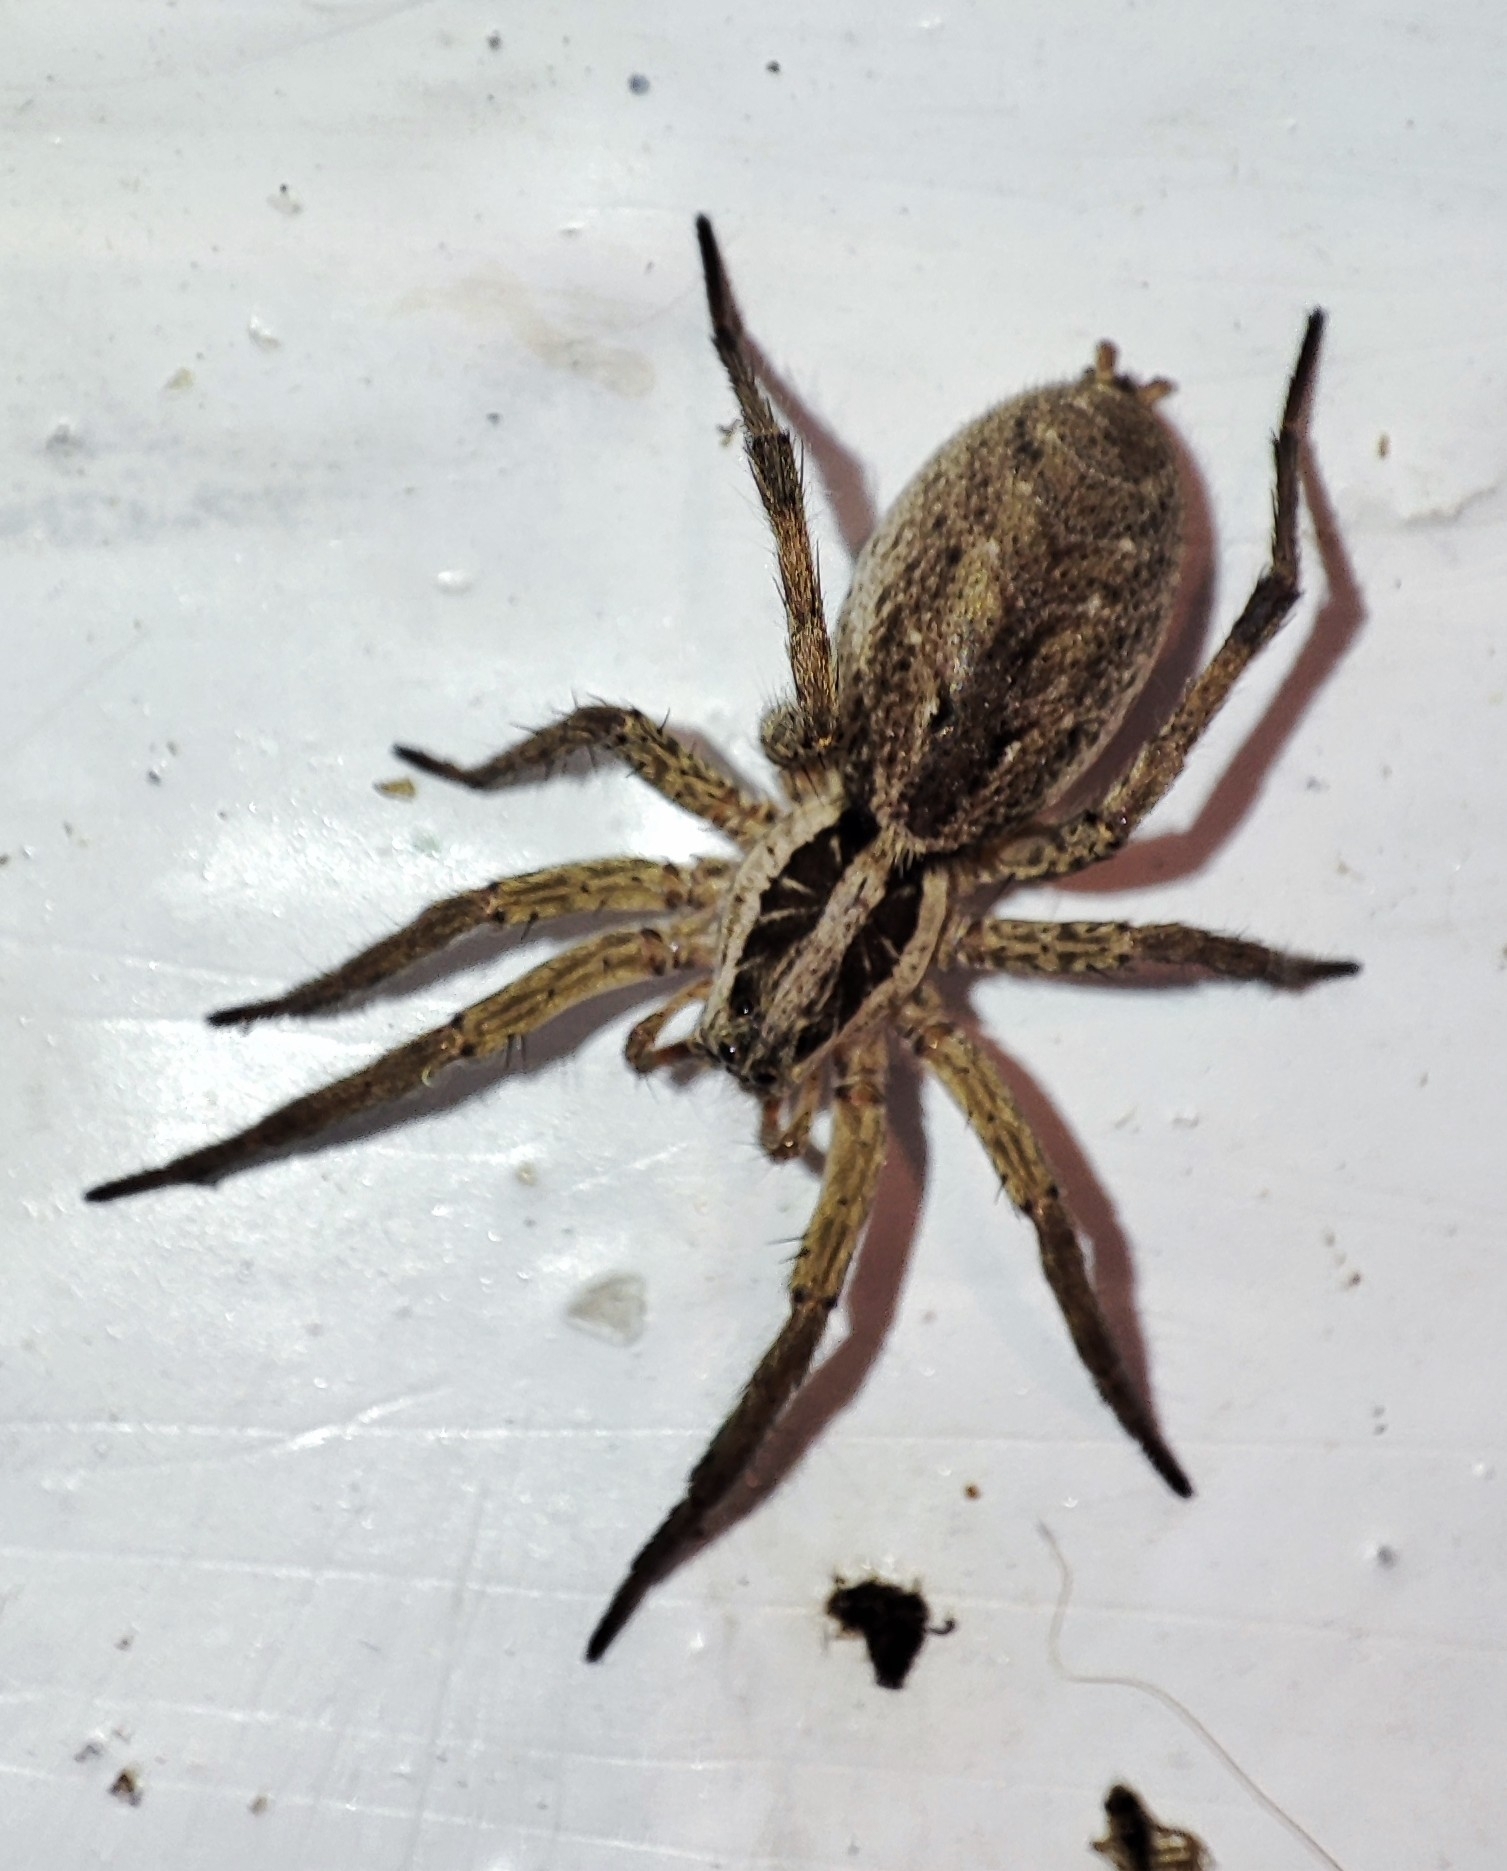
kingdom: Animalia
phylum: Arthropoda
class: Arachnida
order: Araneae
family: Lycosidae
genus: Hogna
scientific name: Hogna radiata
